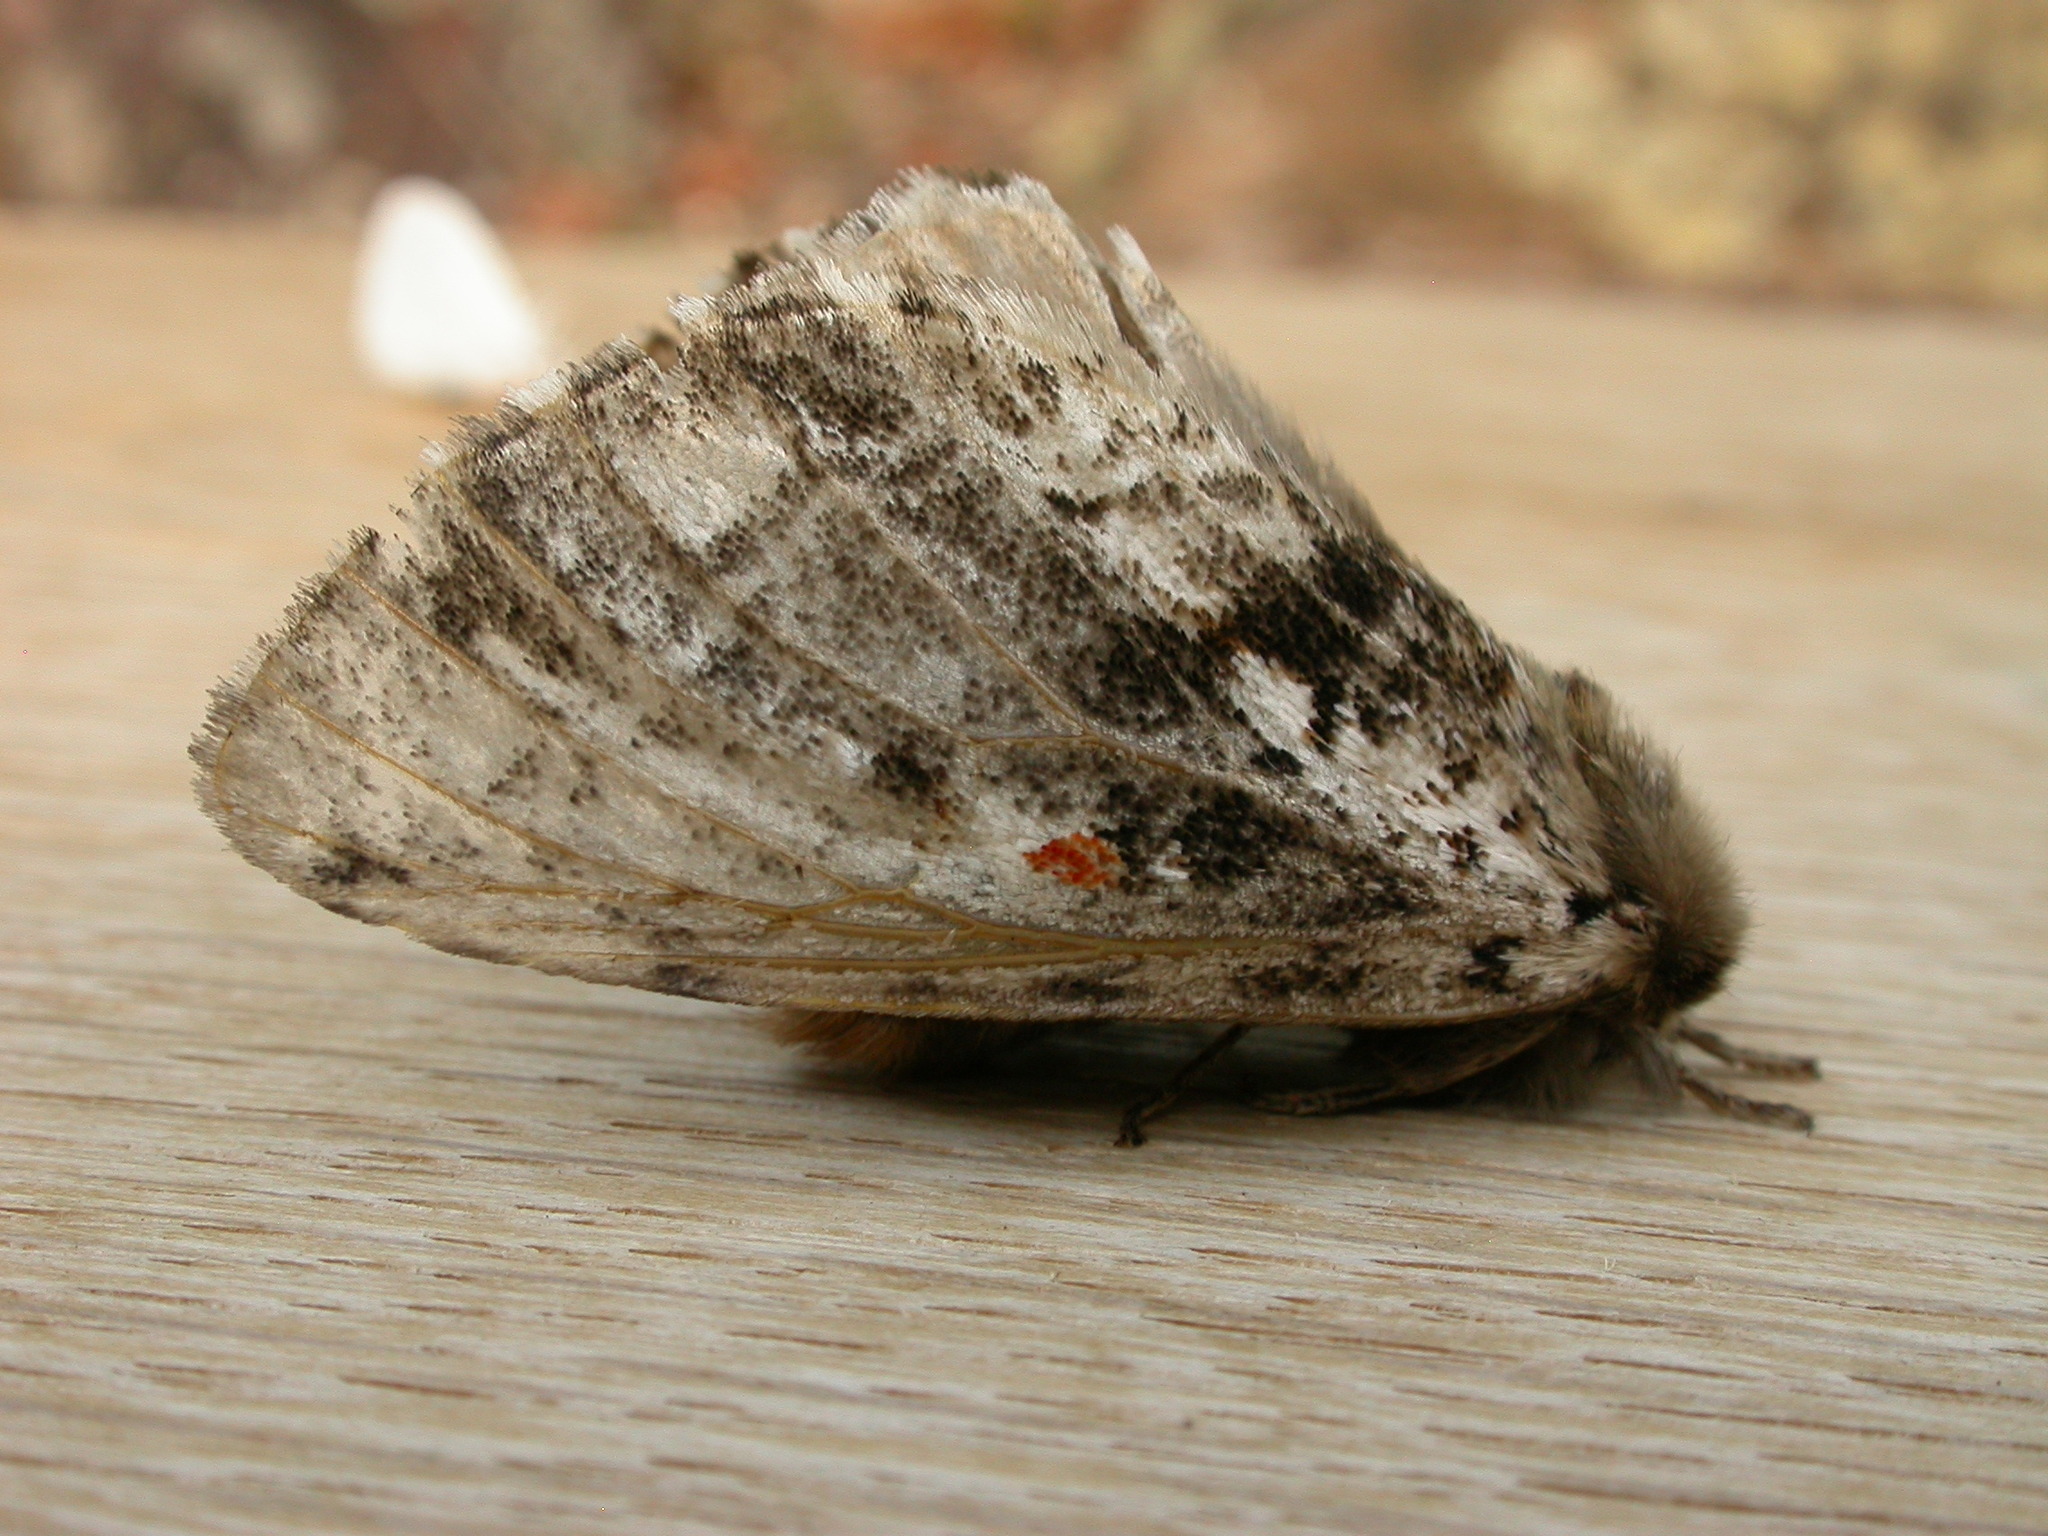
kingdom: Animalia
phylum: Arthropoda
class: Insecta
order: Lepidoptera
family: Notodontidae
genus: Aglaosoma
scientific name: Aglaosoma variegata
